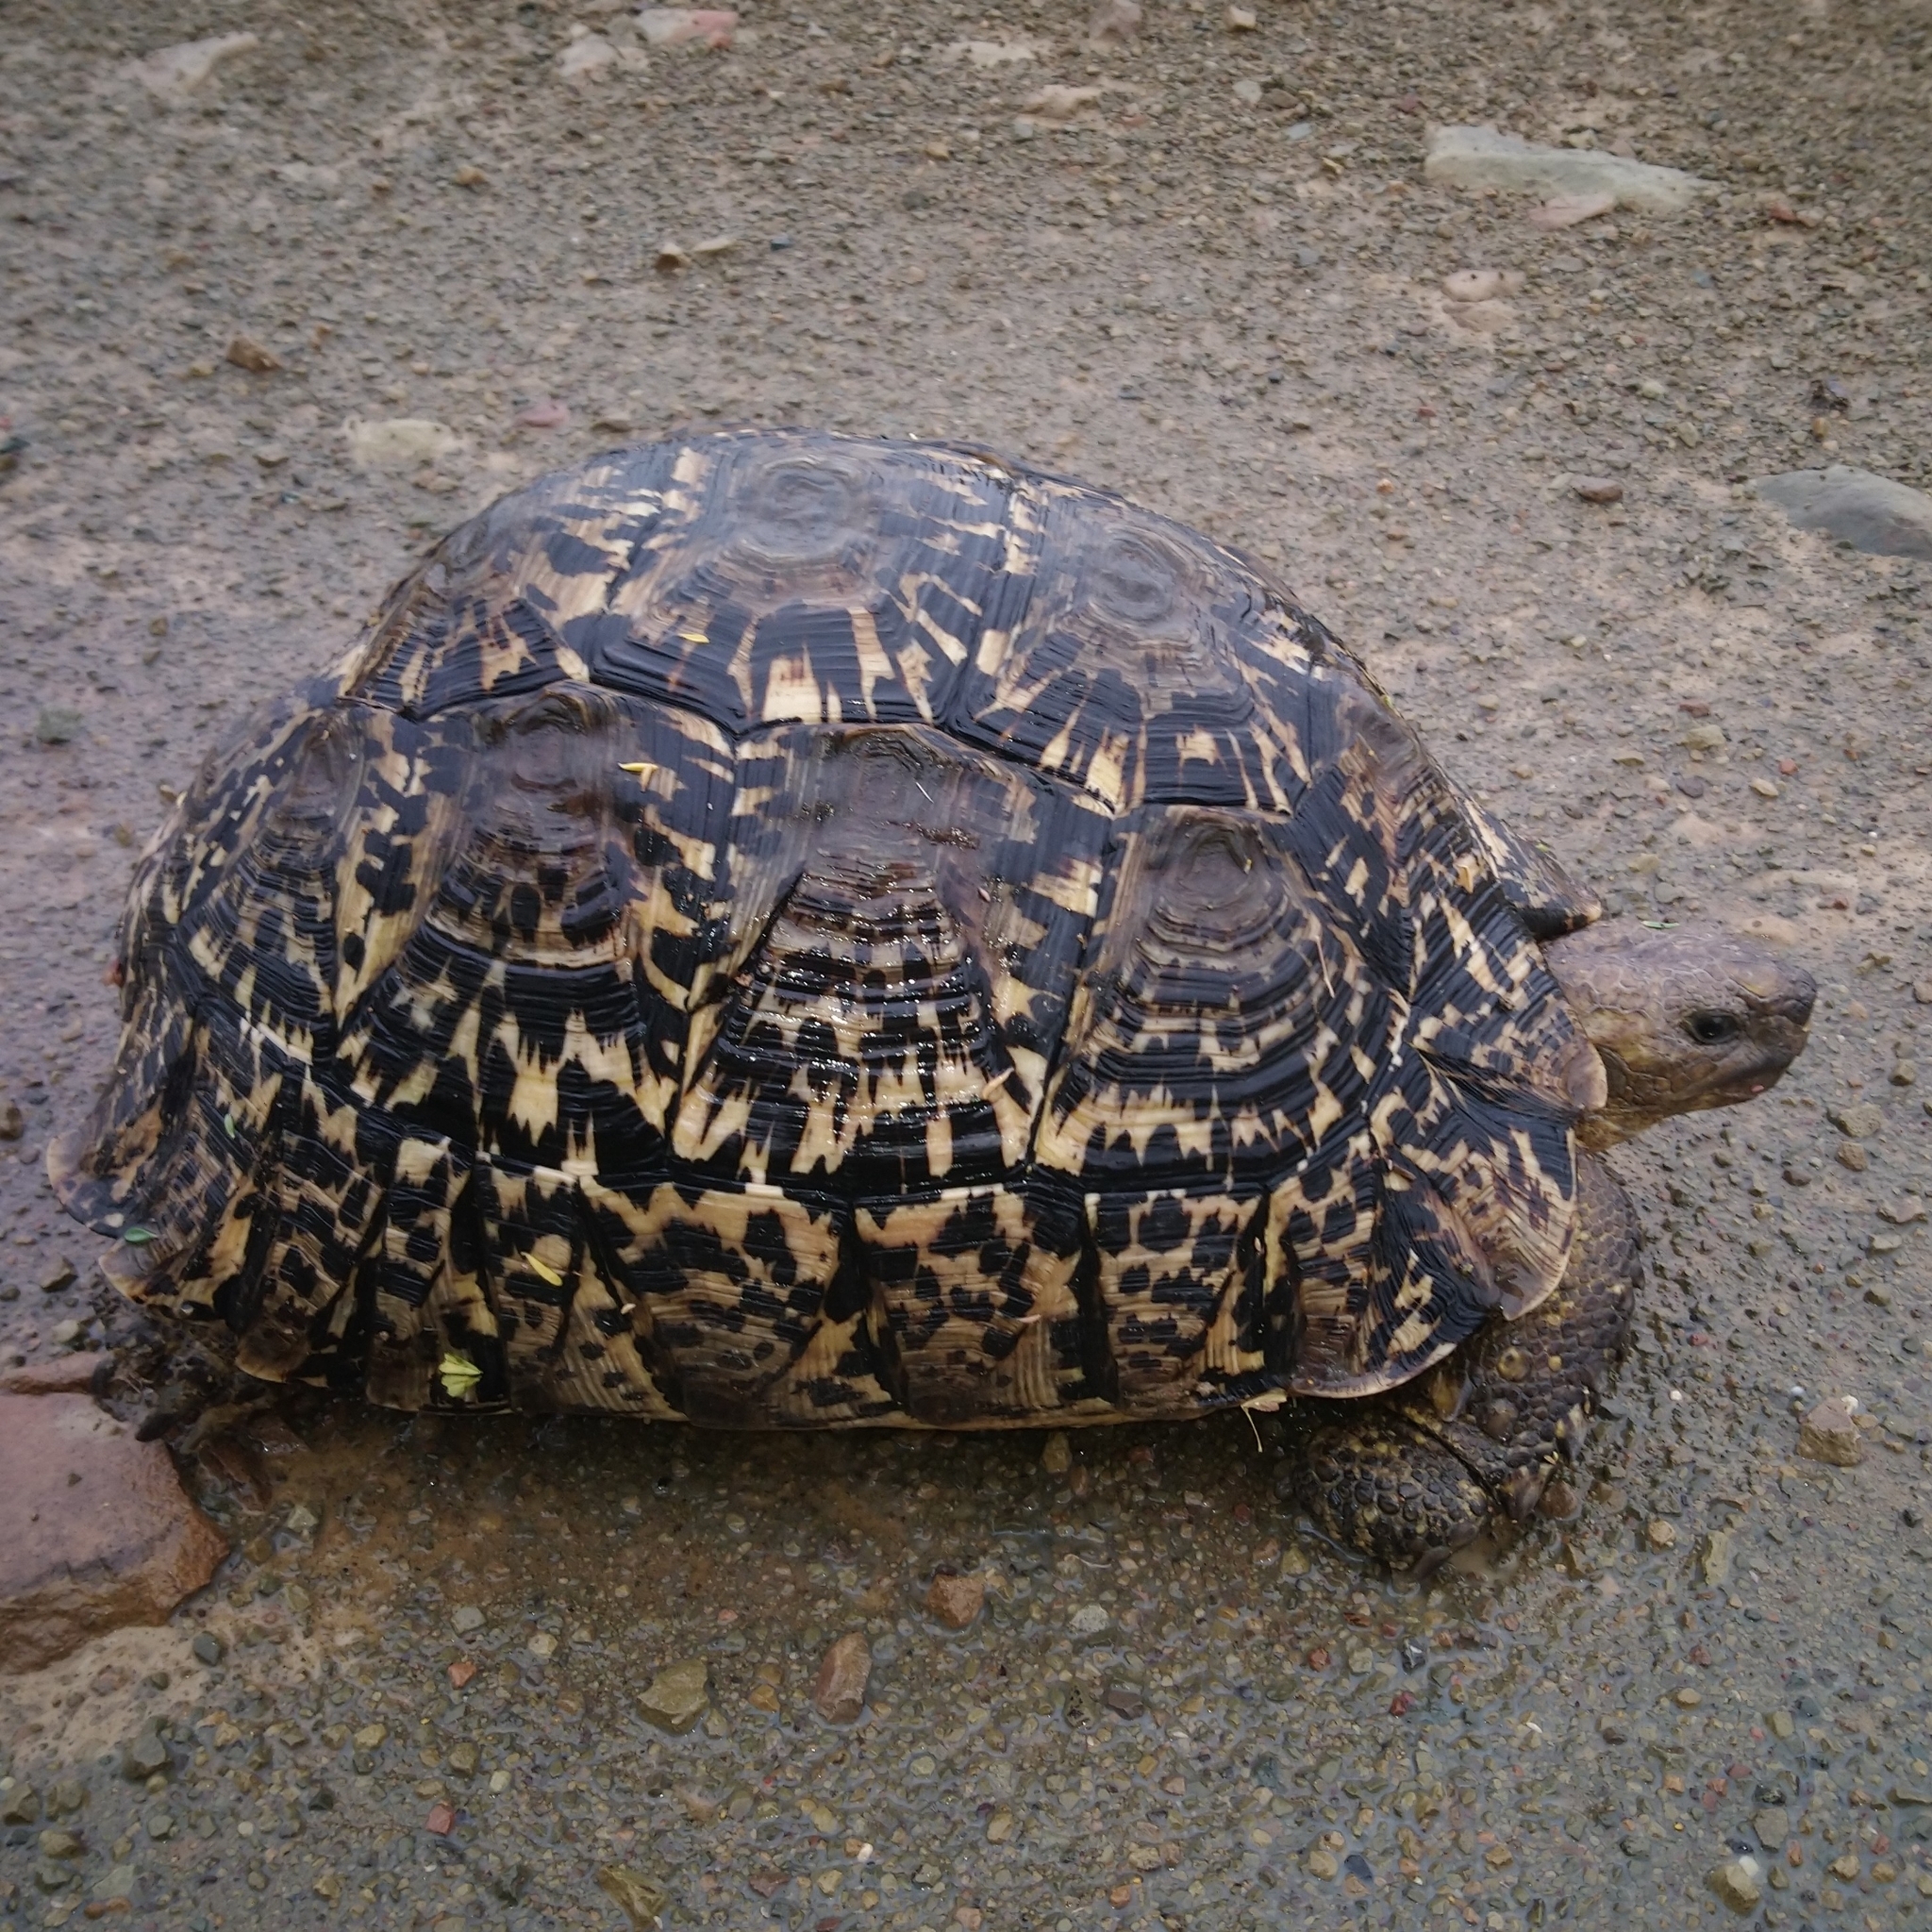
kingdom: Animalia
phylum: Chordata
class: Testudines
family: Testudinidae
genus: Stigmochelys
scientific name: Stigmochelys pardalis
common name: Leopard tortoise
